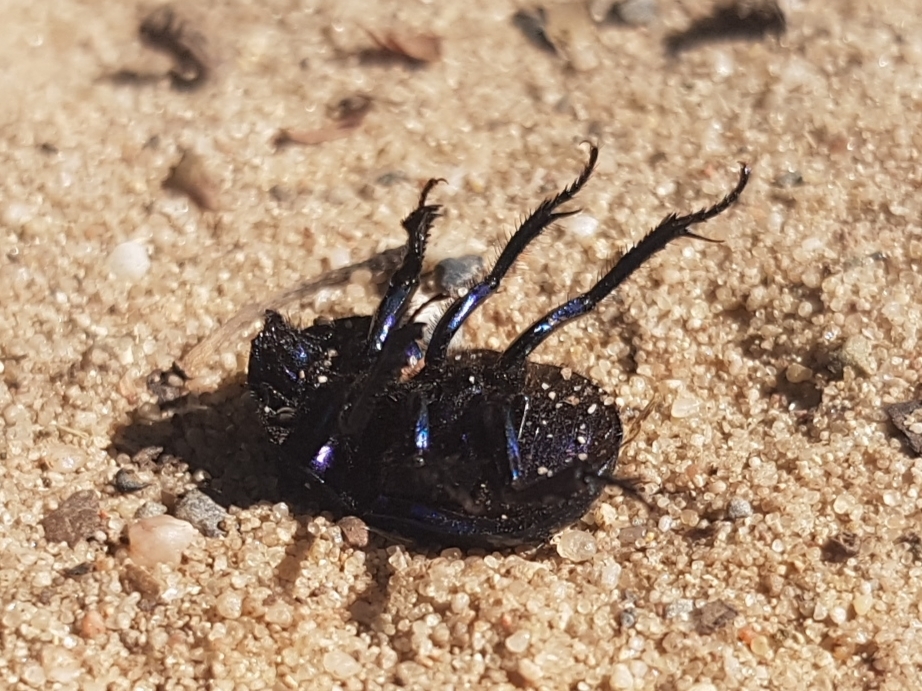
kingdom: Animalia
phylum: Arthropoda
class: Insecta
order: Coleoptera
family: Geotrupidae
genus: Trypocopris
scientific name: Trypocopris vernalis
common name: Spring dumbledor
